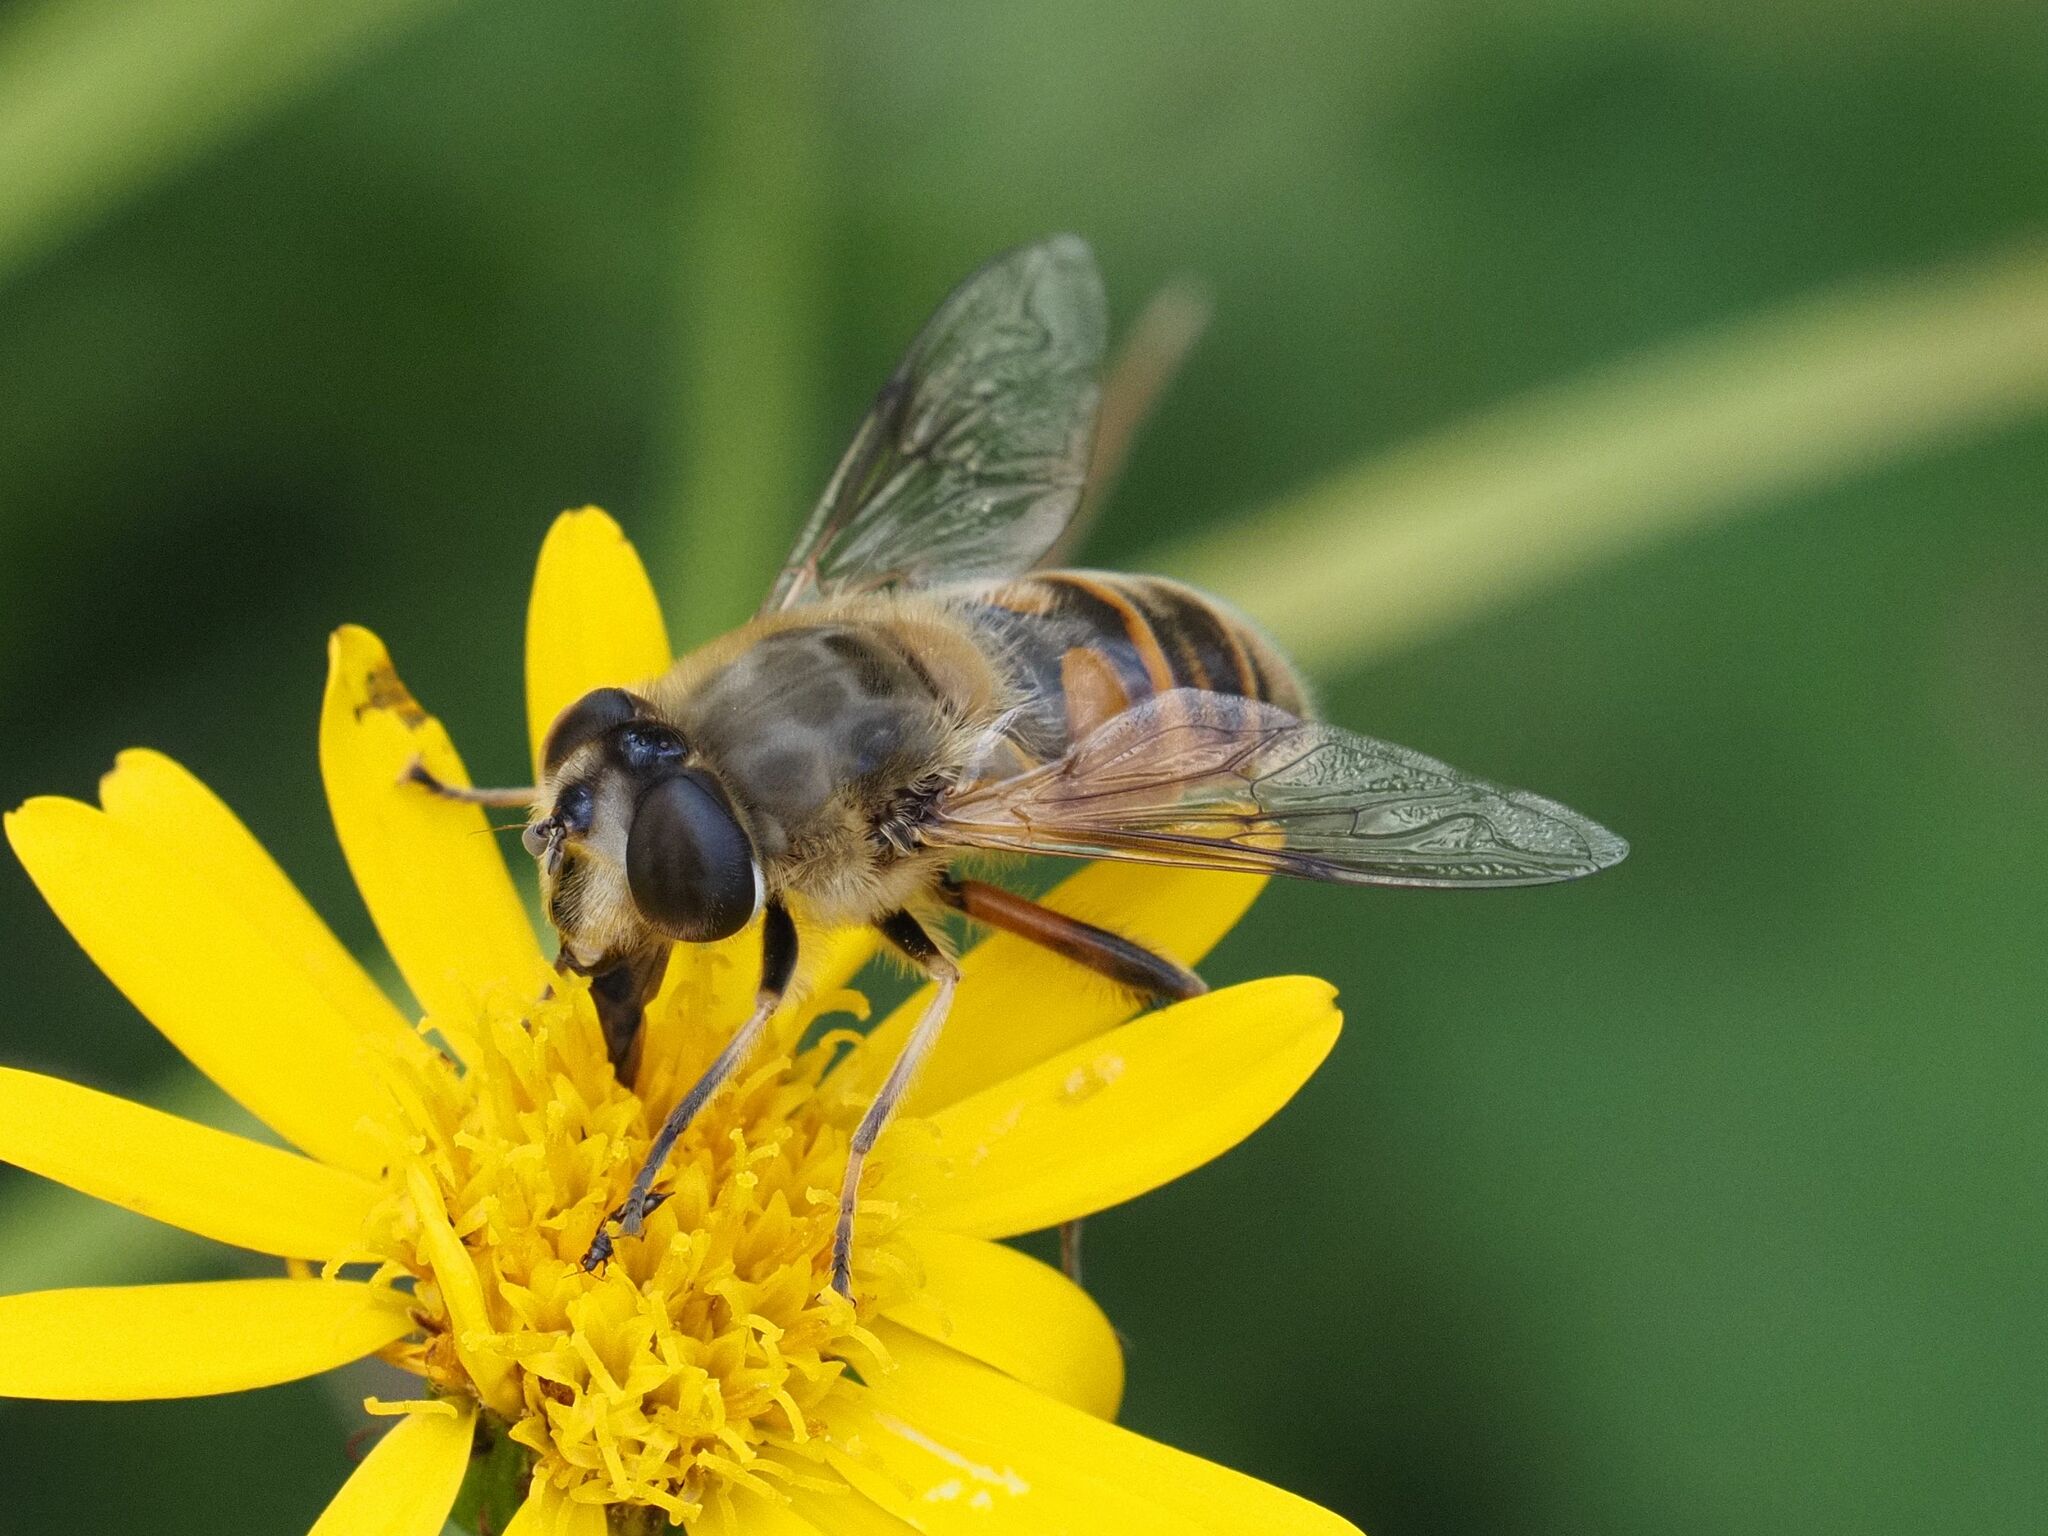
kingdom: Animalia
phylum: Arthropoda
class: Insecta
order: Diptera
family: Syrphidae
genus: Eristalis
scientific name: Eristalis tenax
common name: Drone fly
